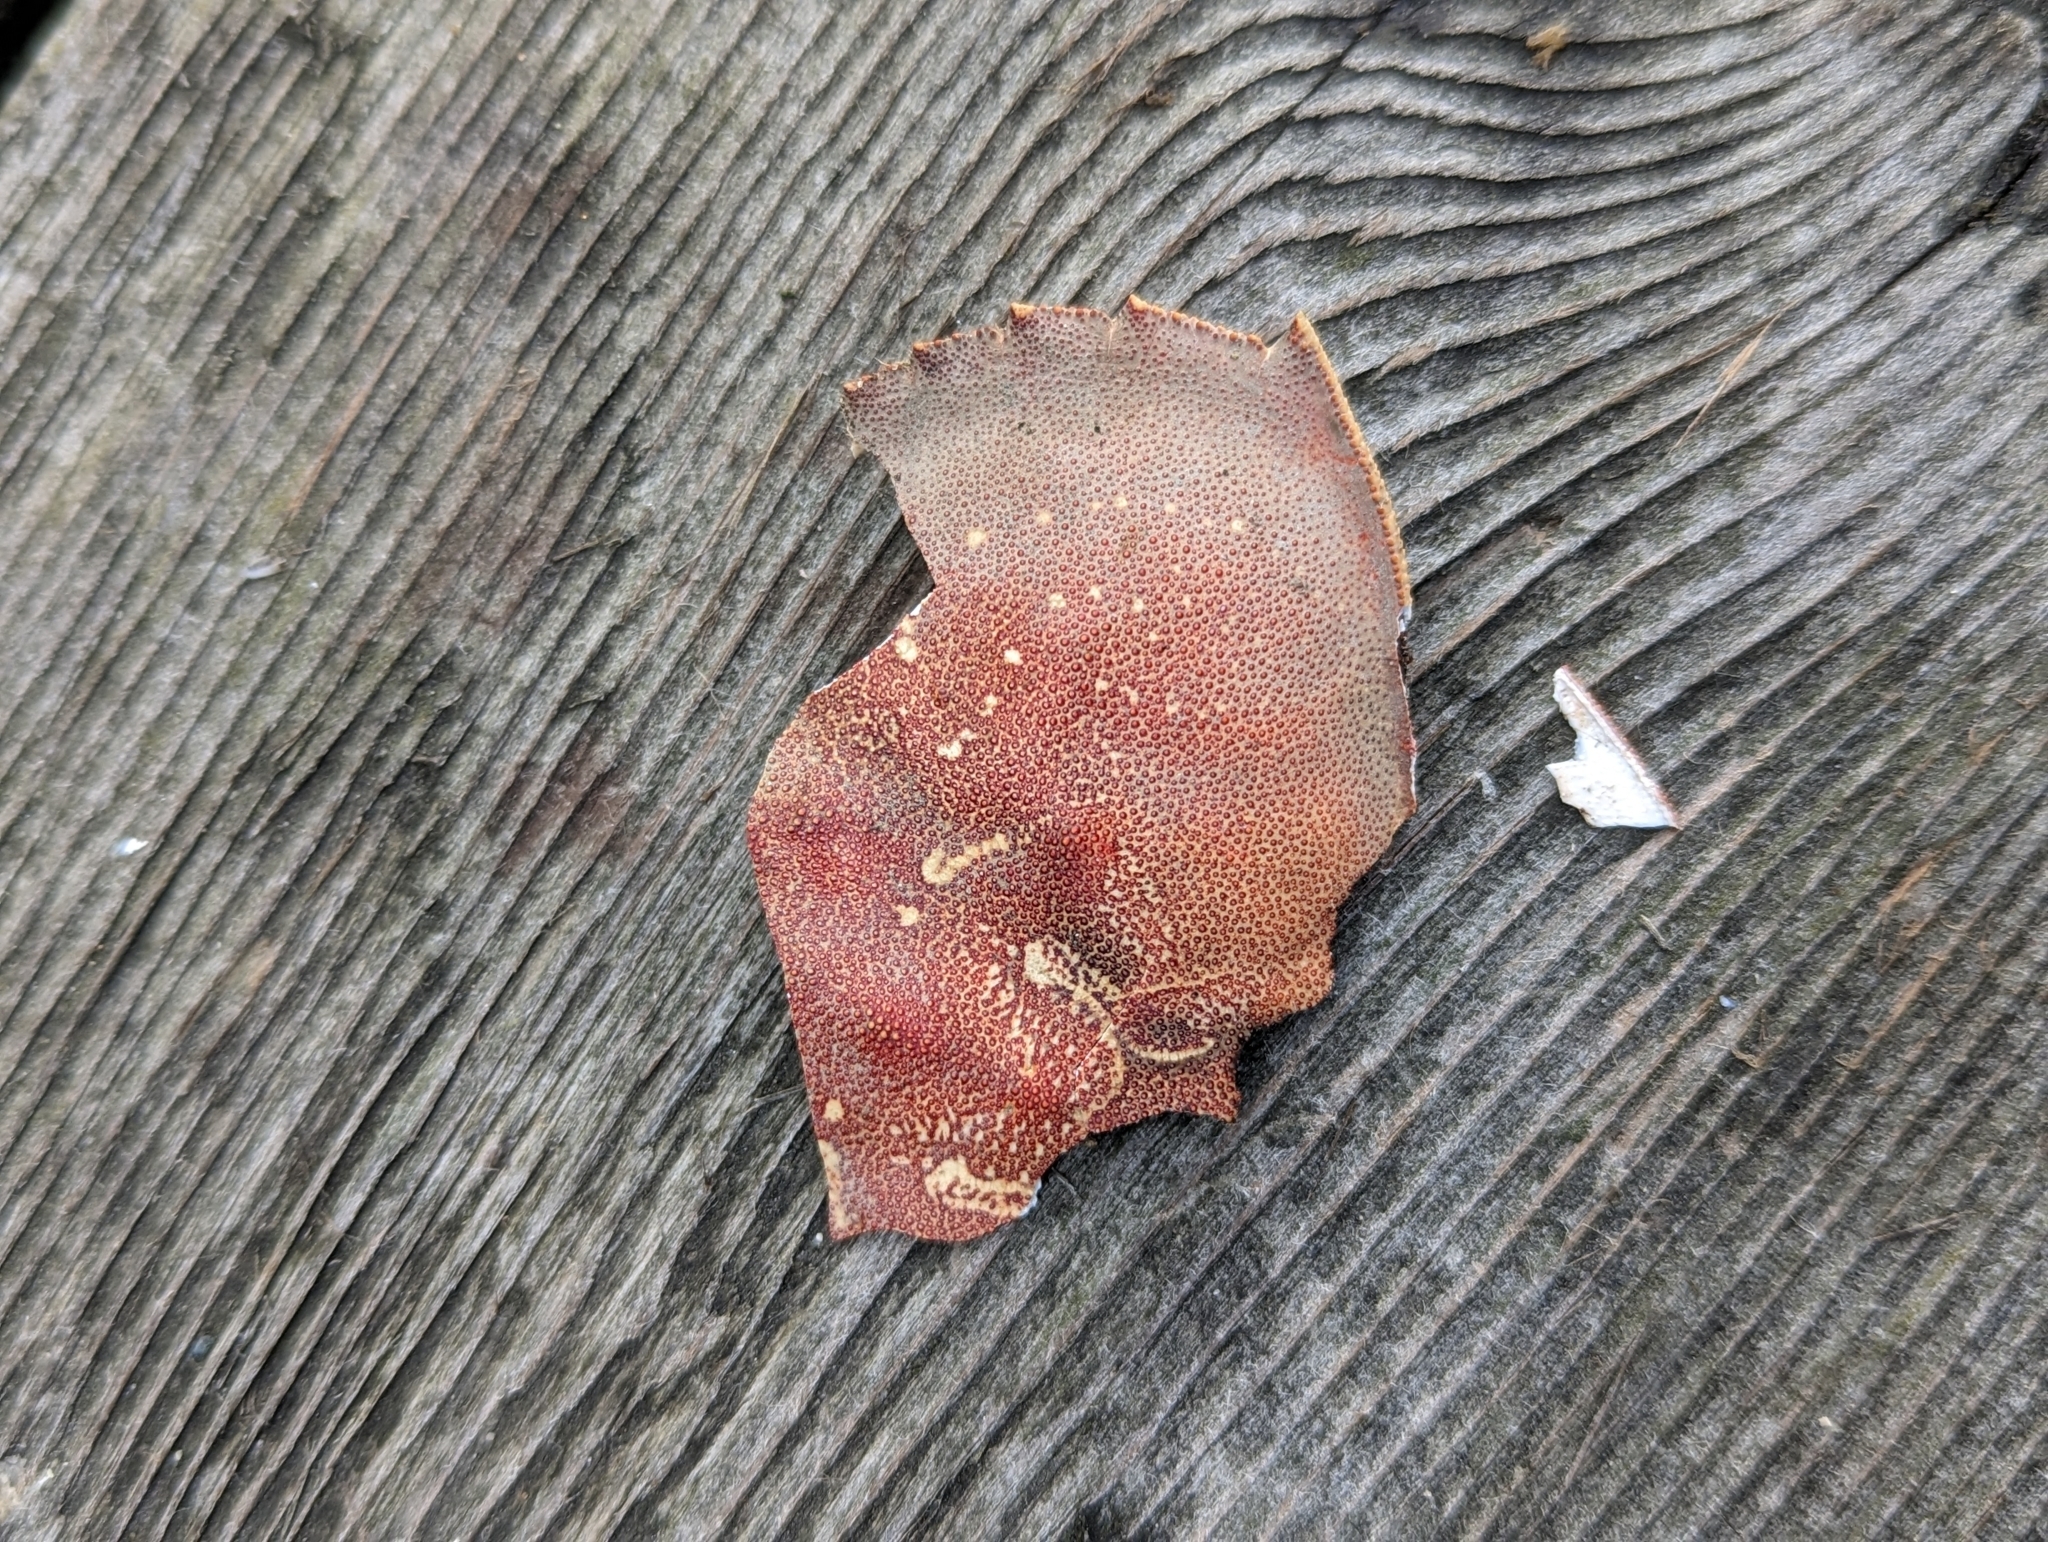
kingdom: Animalia
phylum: Arthropoda
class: Malacostraca
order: Decapoda
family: Cancridae
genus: Metacarcinus
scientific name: Metacarcinus magister
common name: Californian crab
